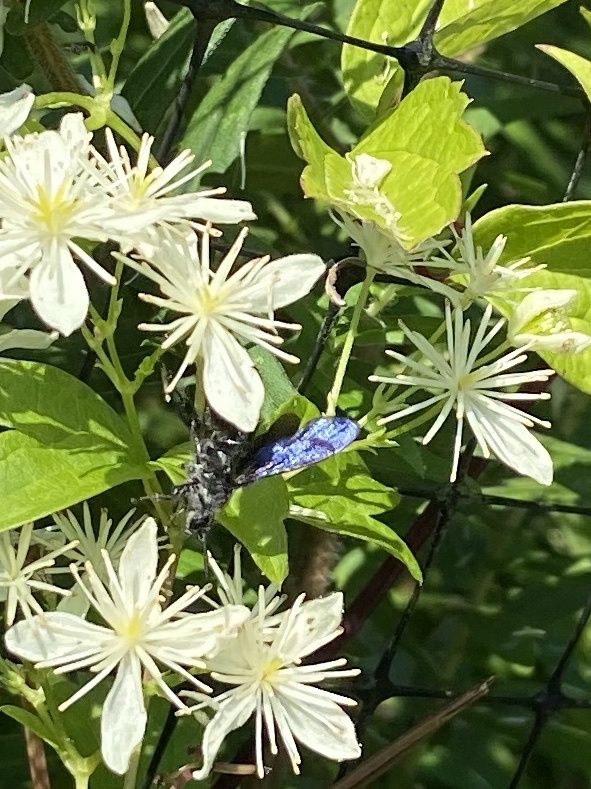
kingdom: Animalia
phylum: Arthropoda
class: Insecta
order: Hymenoptera
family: Scoliidae
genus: Scolia
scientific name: Scolia bicincta
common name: Double-banded scoliid wasp
